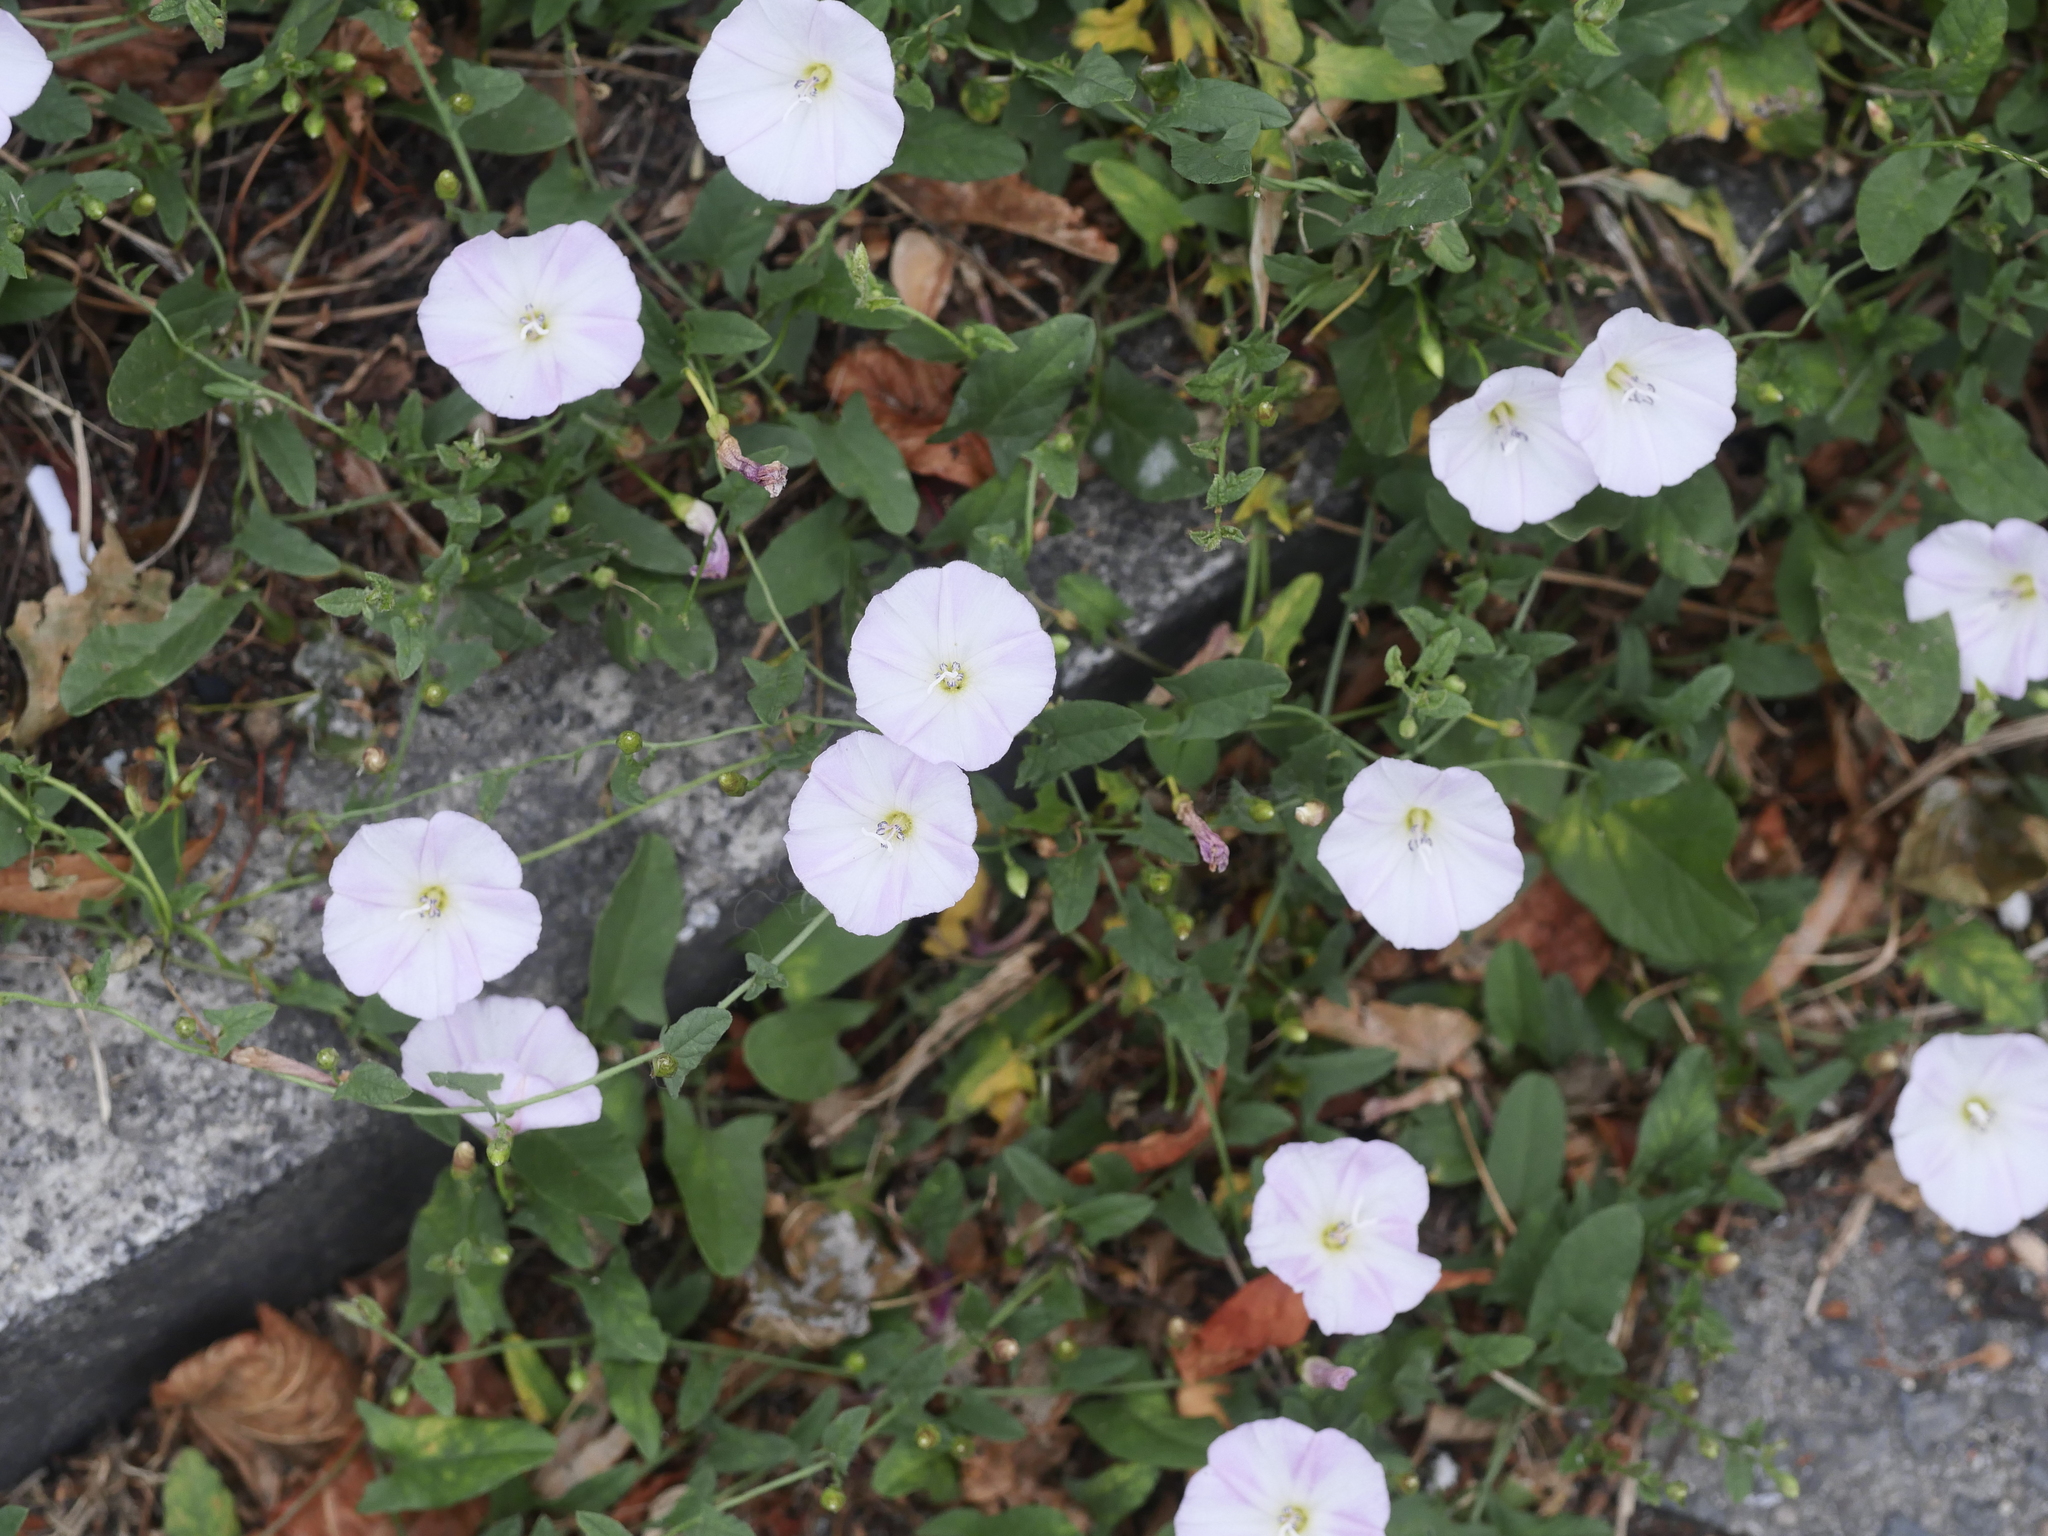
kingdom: Plantae
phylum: Tracheophyta
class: Magnoliopsida
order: Solanales
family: Convolvulaceae
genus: Convolvulus
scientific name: Convolvulus arvensis
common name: Field bindweed
